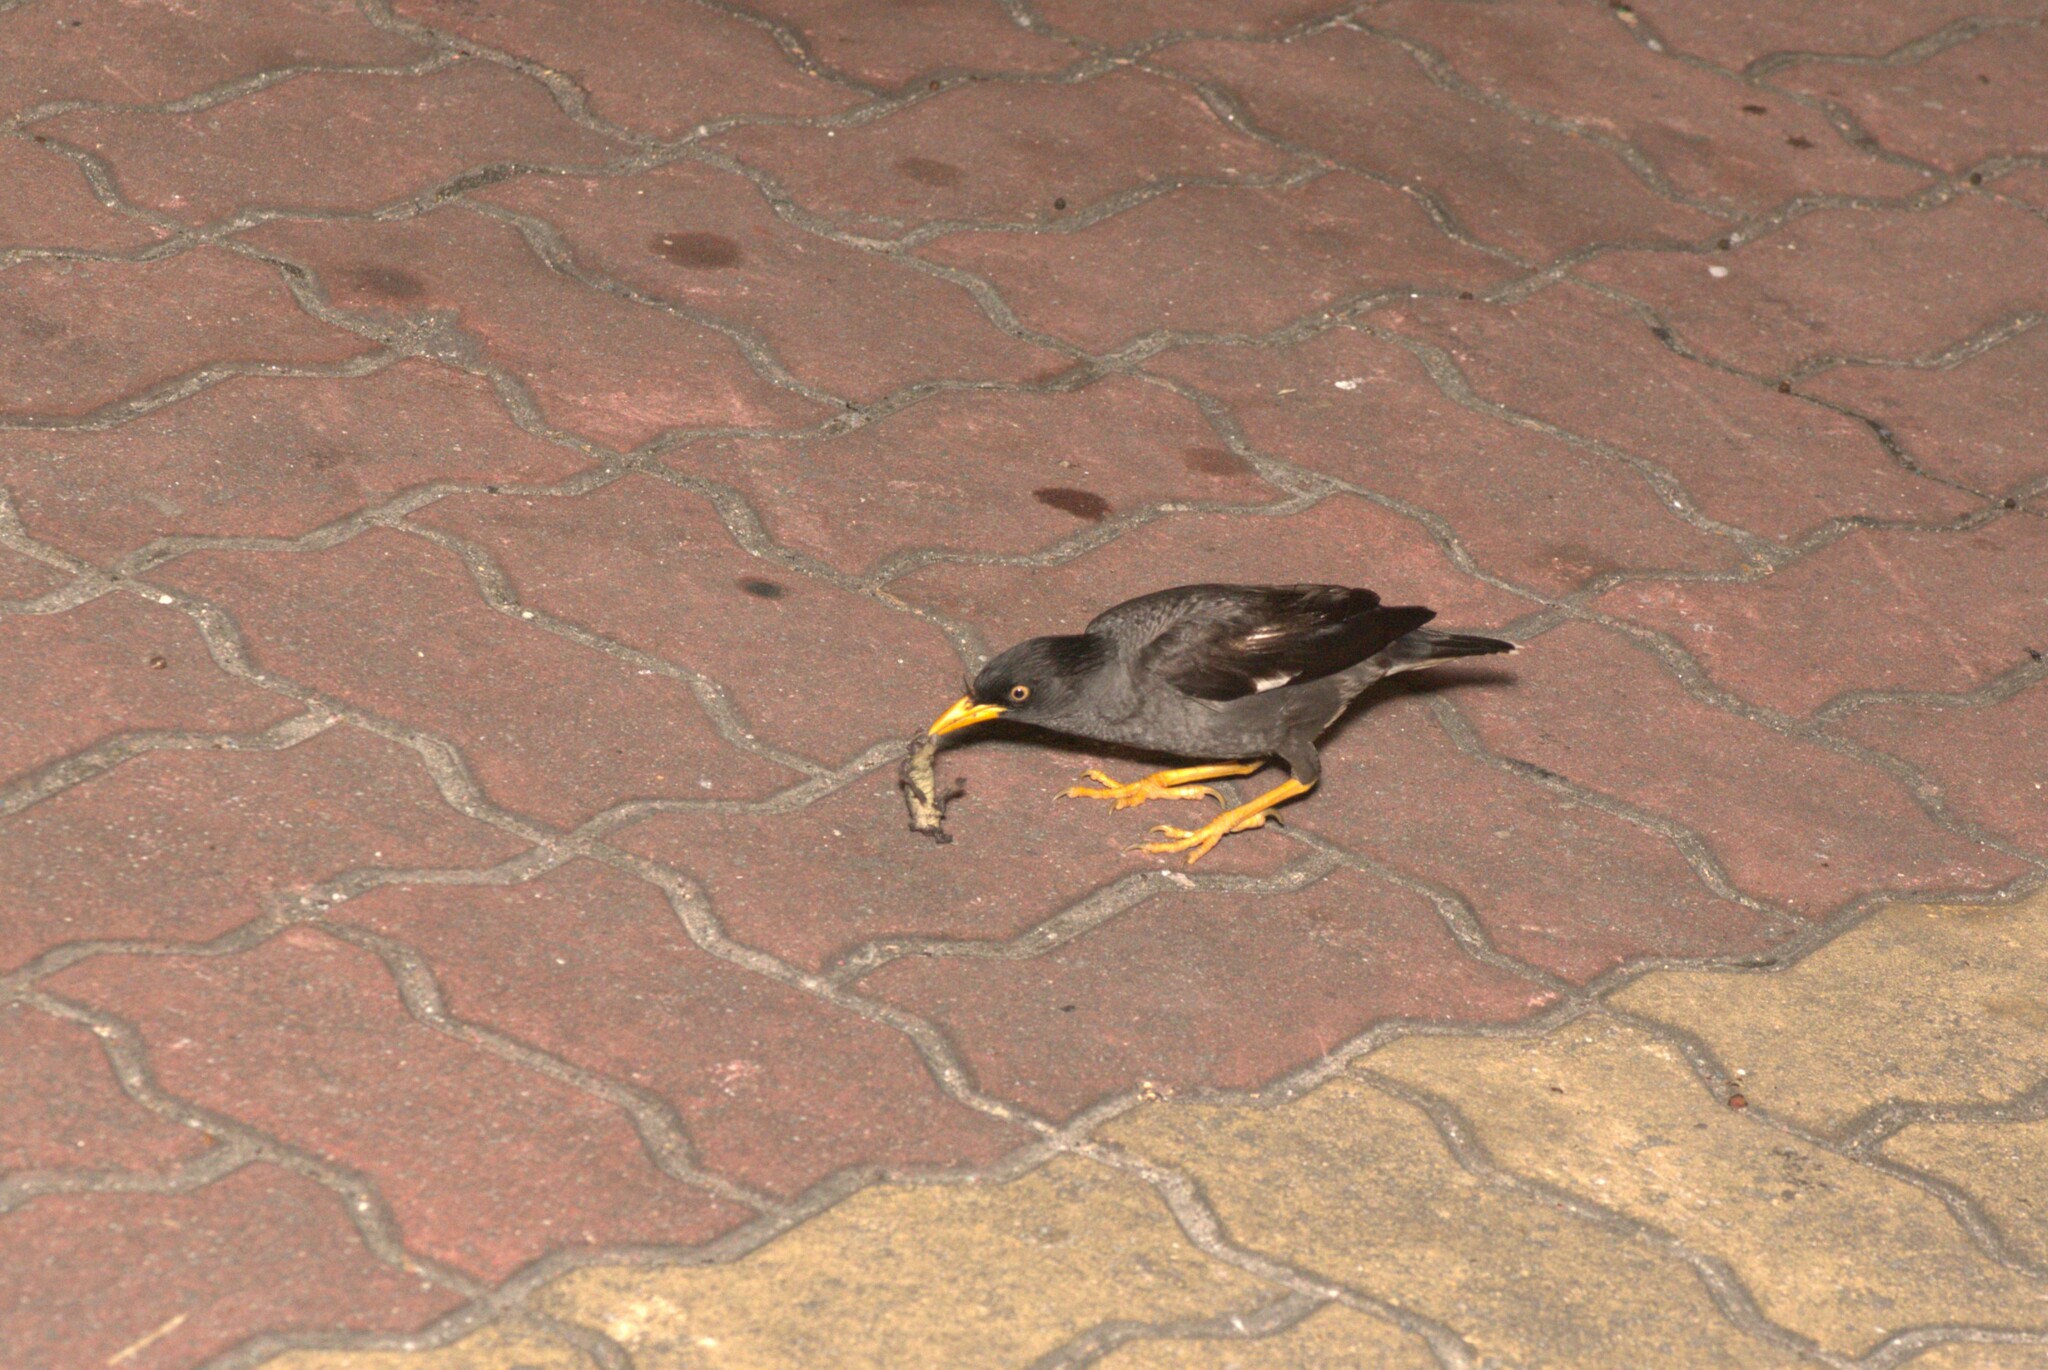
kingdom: Animalia
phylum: Chordata
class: Aves
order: Passeriformes
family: Sturnidae
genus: Acridotheres
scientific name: Acridotheres javanicus
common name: Javan myna
